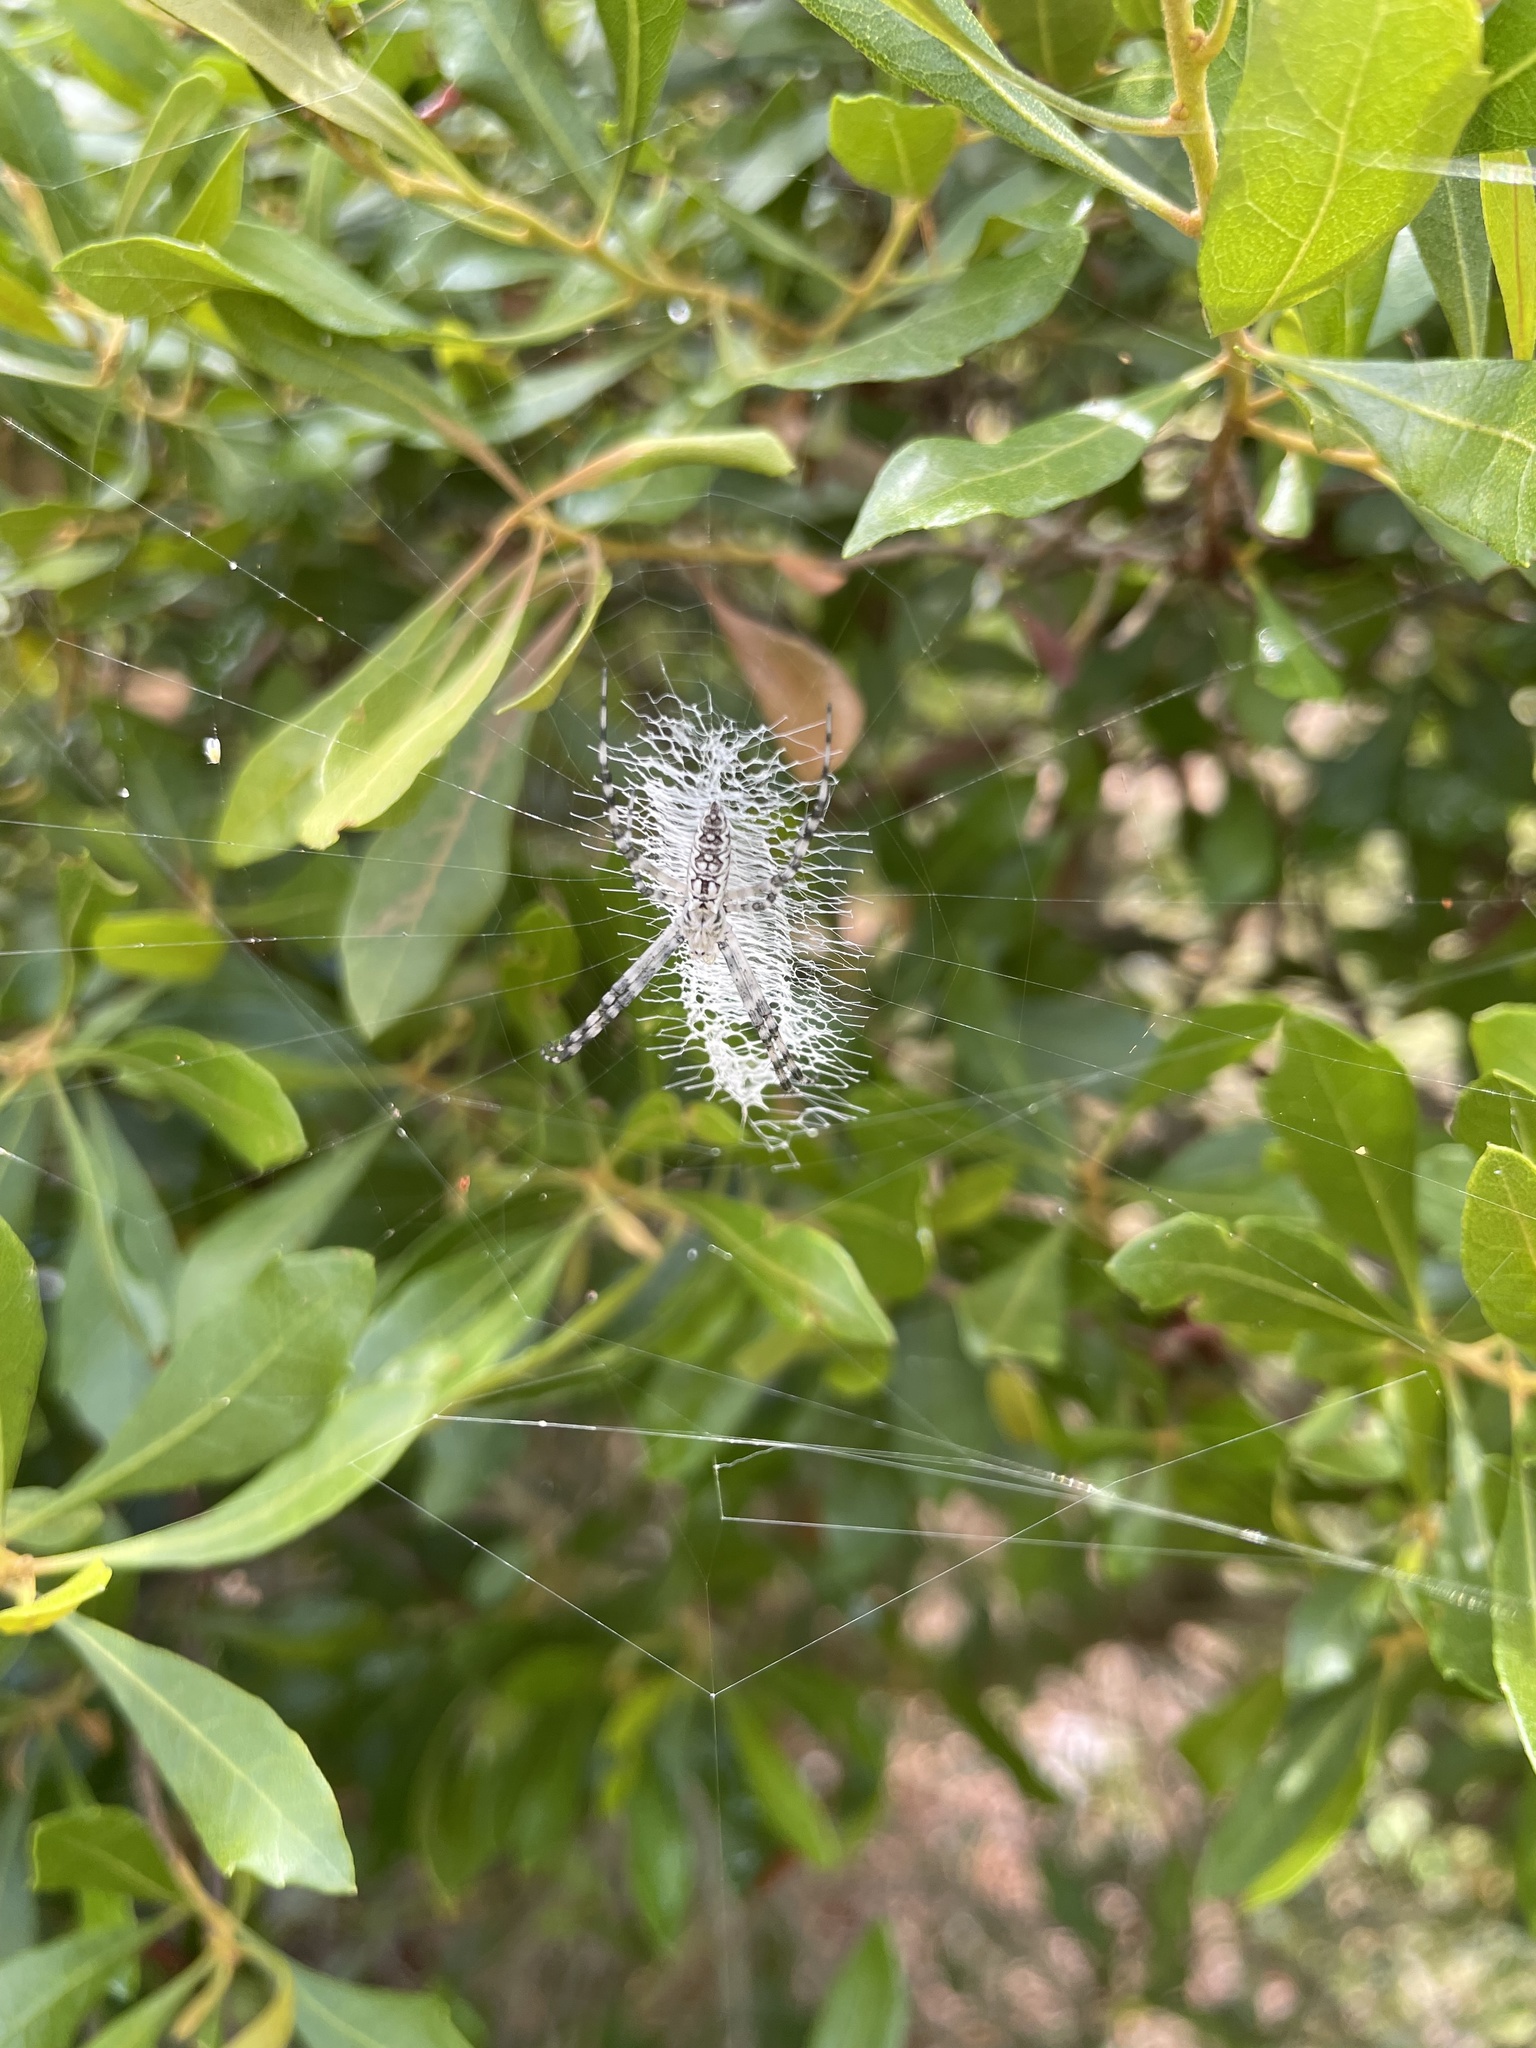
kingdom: Animalia
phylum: Arthropoda
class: Arachnida
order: Araneae
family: Araneidae
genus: Argiope
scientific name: Argiope aurantia
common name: Orb weavers
